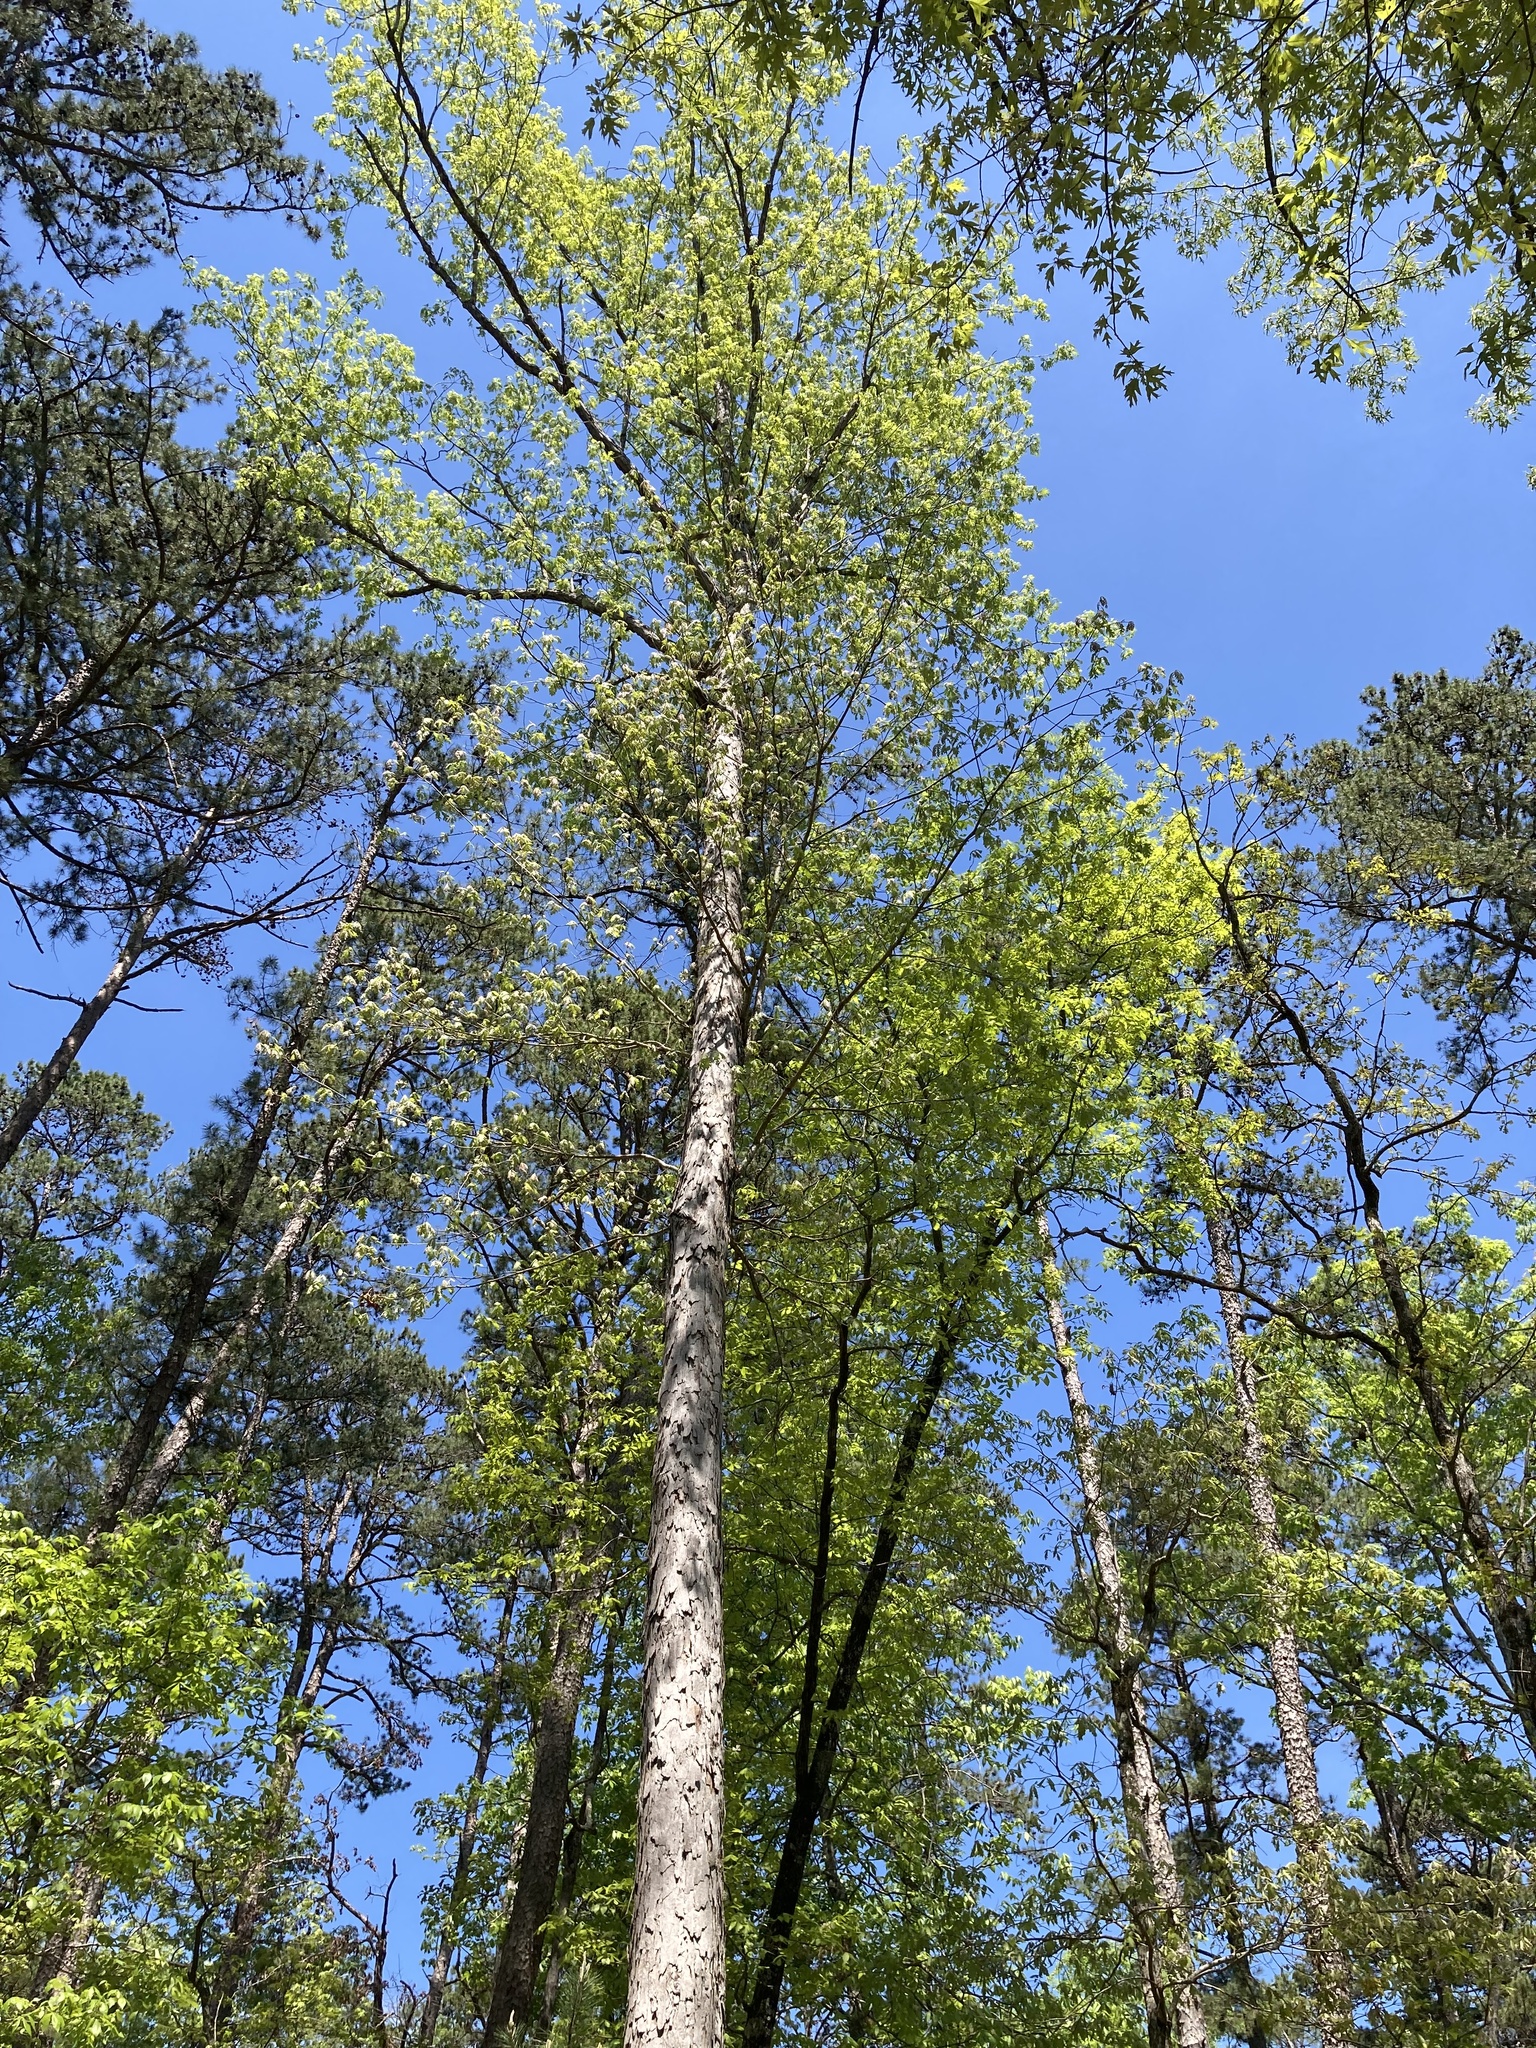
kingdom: Plantae
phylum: Tracheophyta
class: Magnoliopsida
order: Fagales
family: Fagaceae
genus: Quercus
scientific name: Quercus alba
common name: White oak
